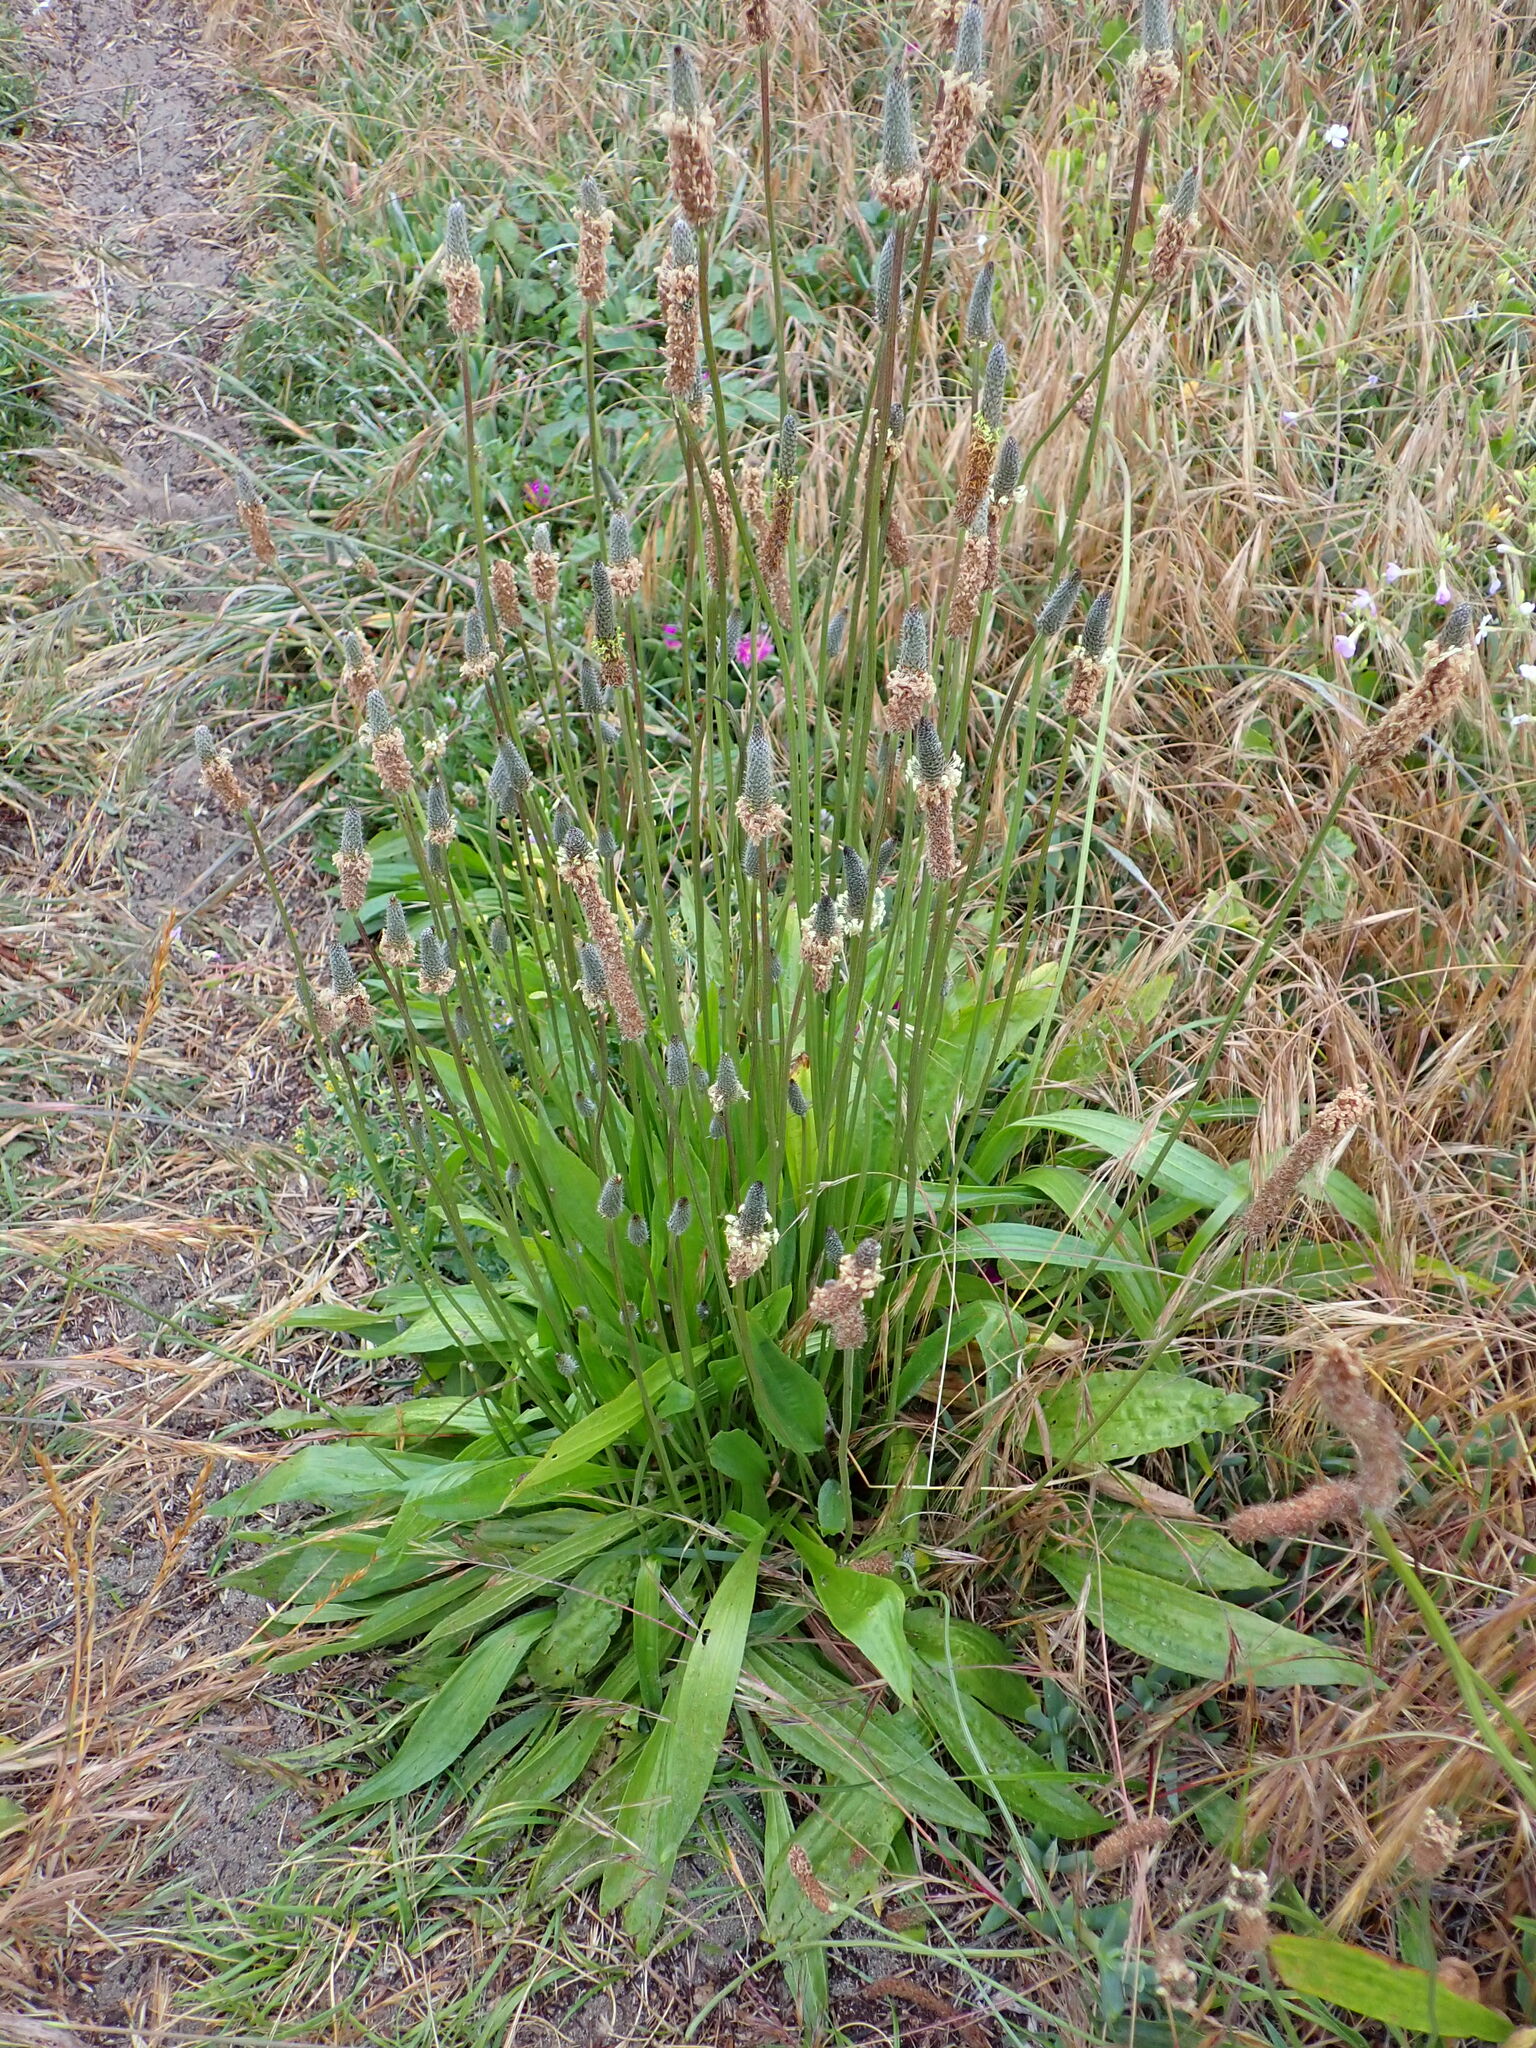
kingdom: Plantae
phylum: Tracheophyta
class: Magnoliopsida
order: Lamiales
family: Plantaginaceae
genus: Plantago
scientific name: Plantago lanceolata
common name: Ribwort plantain
